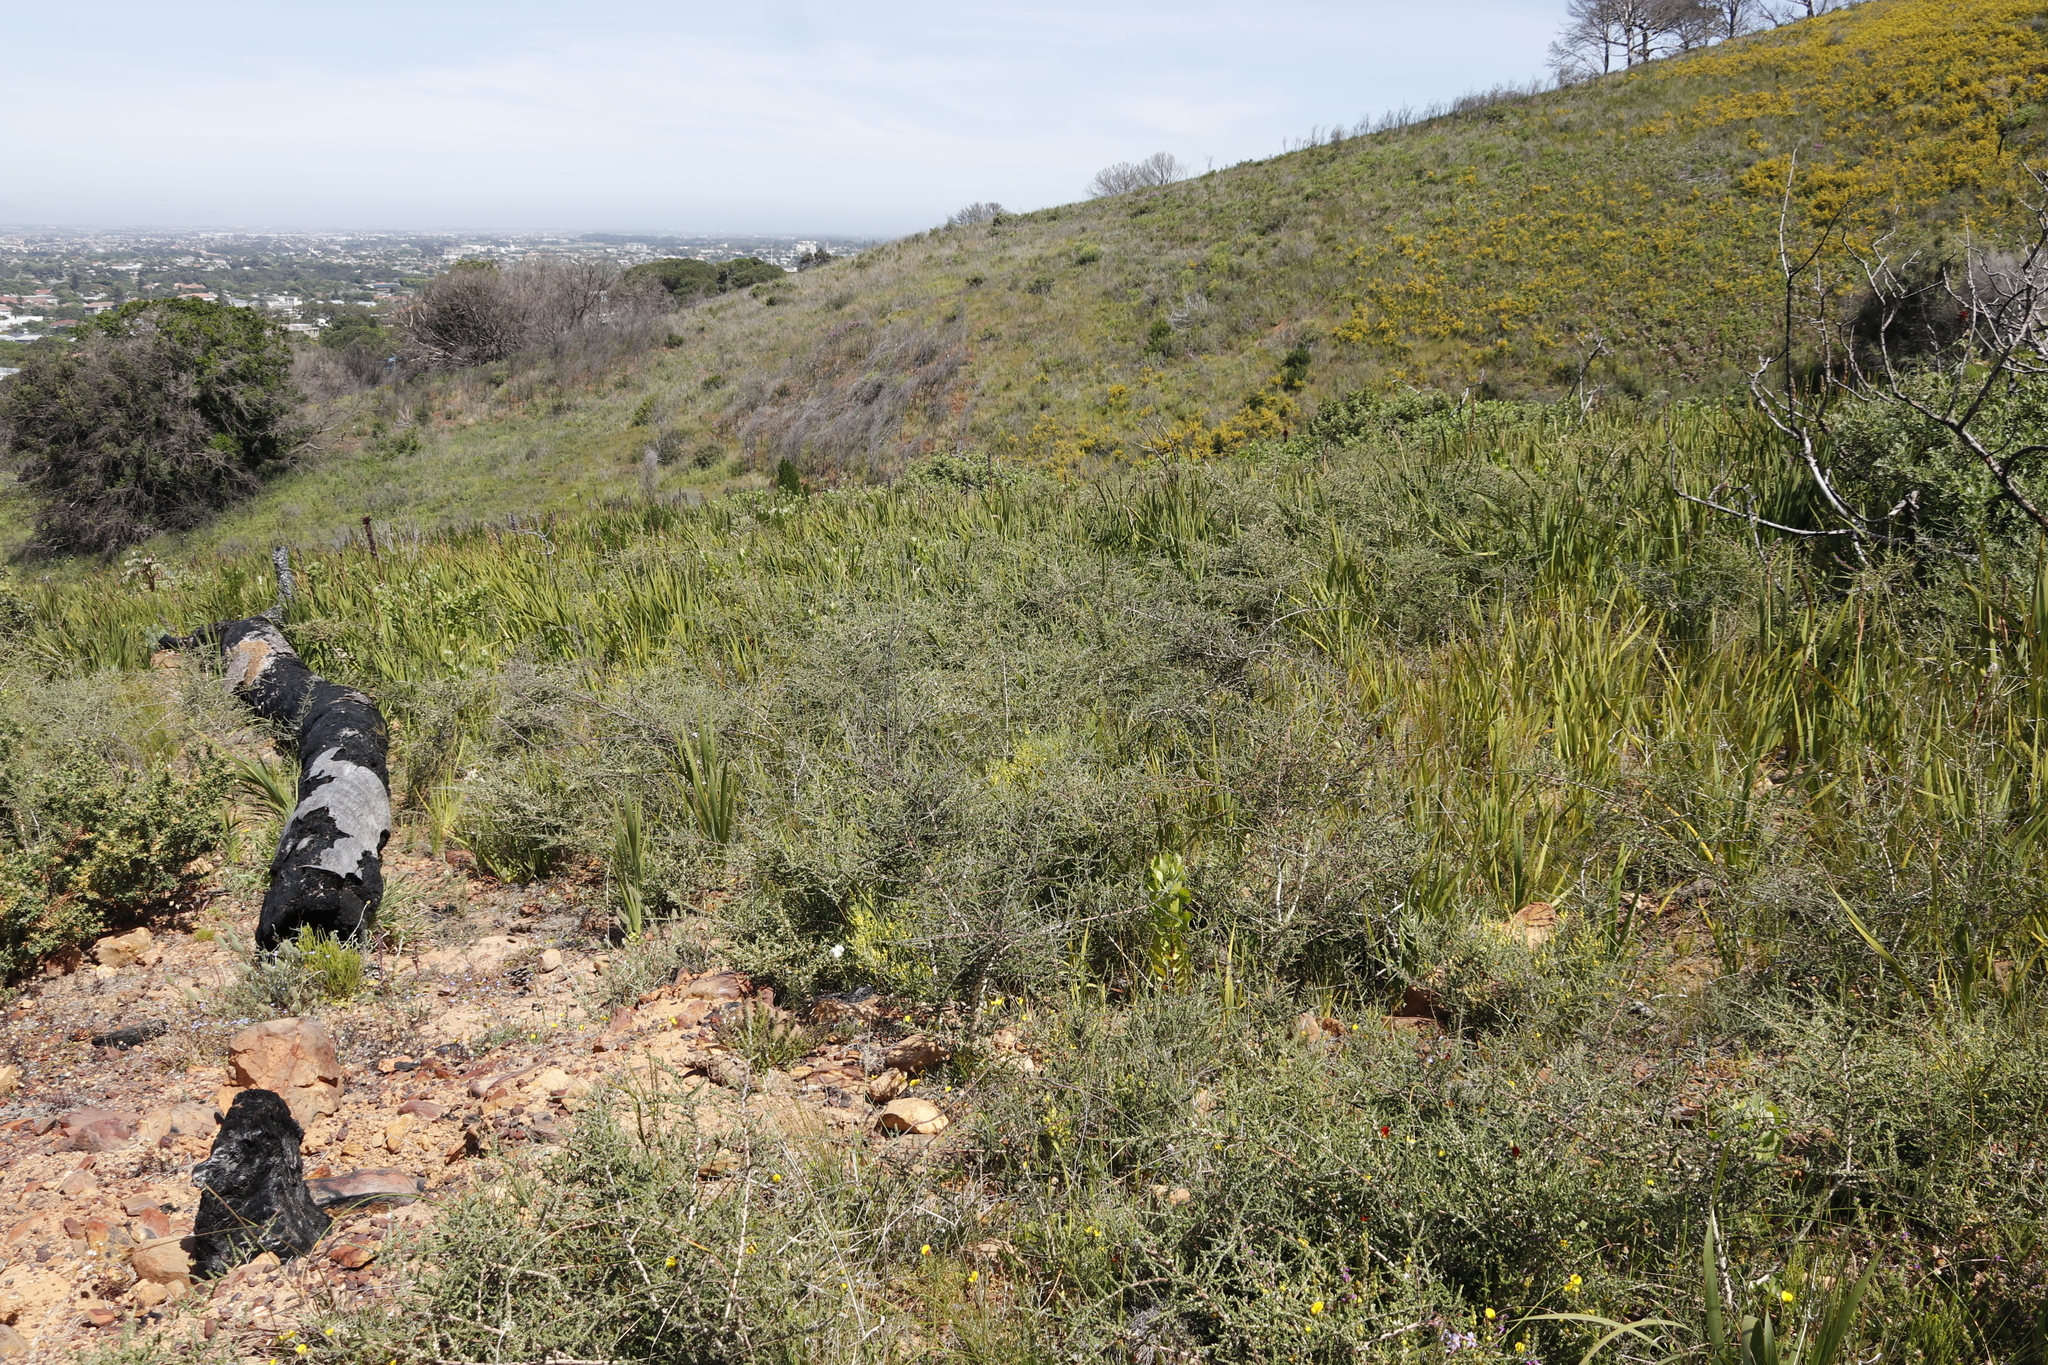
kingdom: Plantae
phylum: Tracheophyta
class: Liliopsida
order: Asparagales
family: Iridaceae
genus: Aristea
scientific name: Aristea capitata
